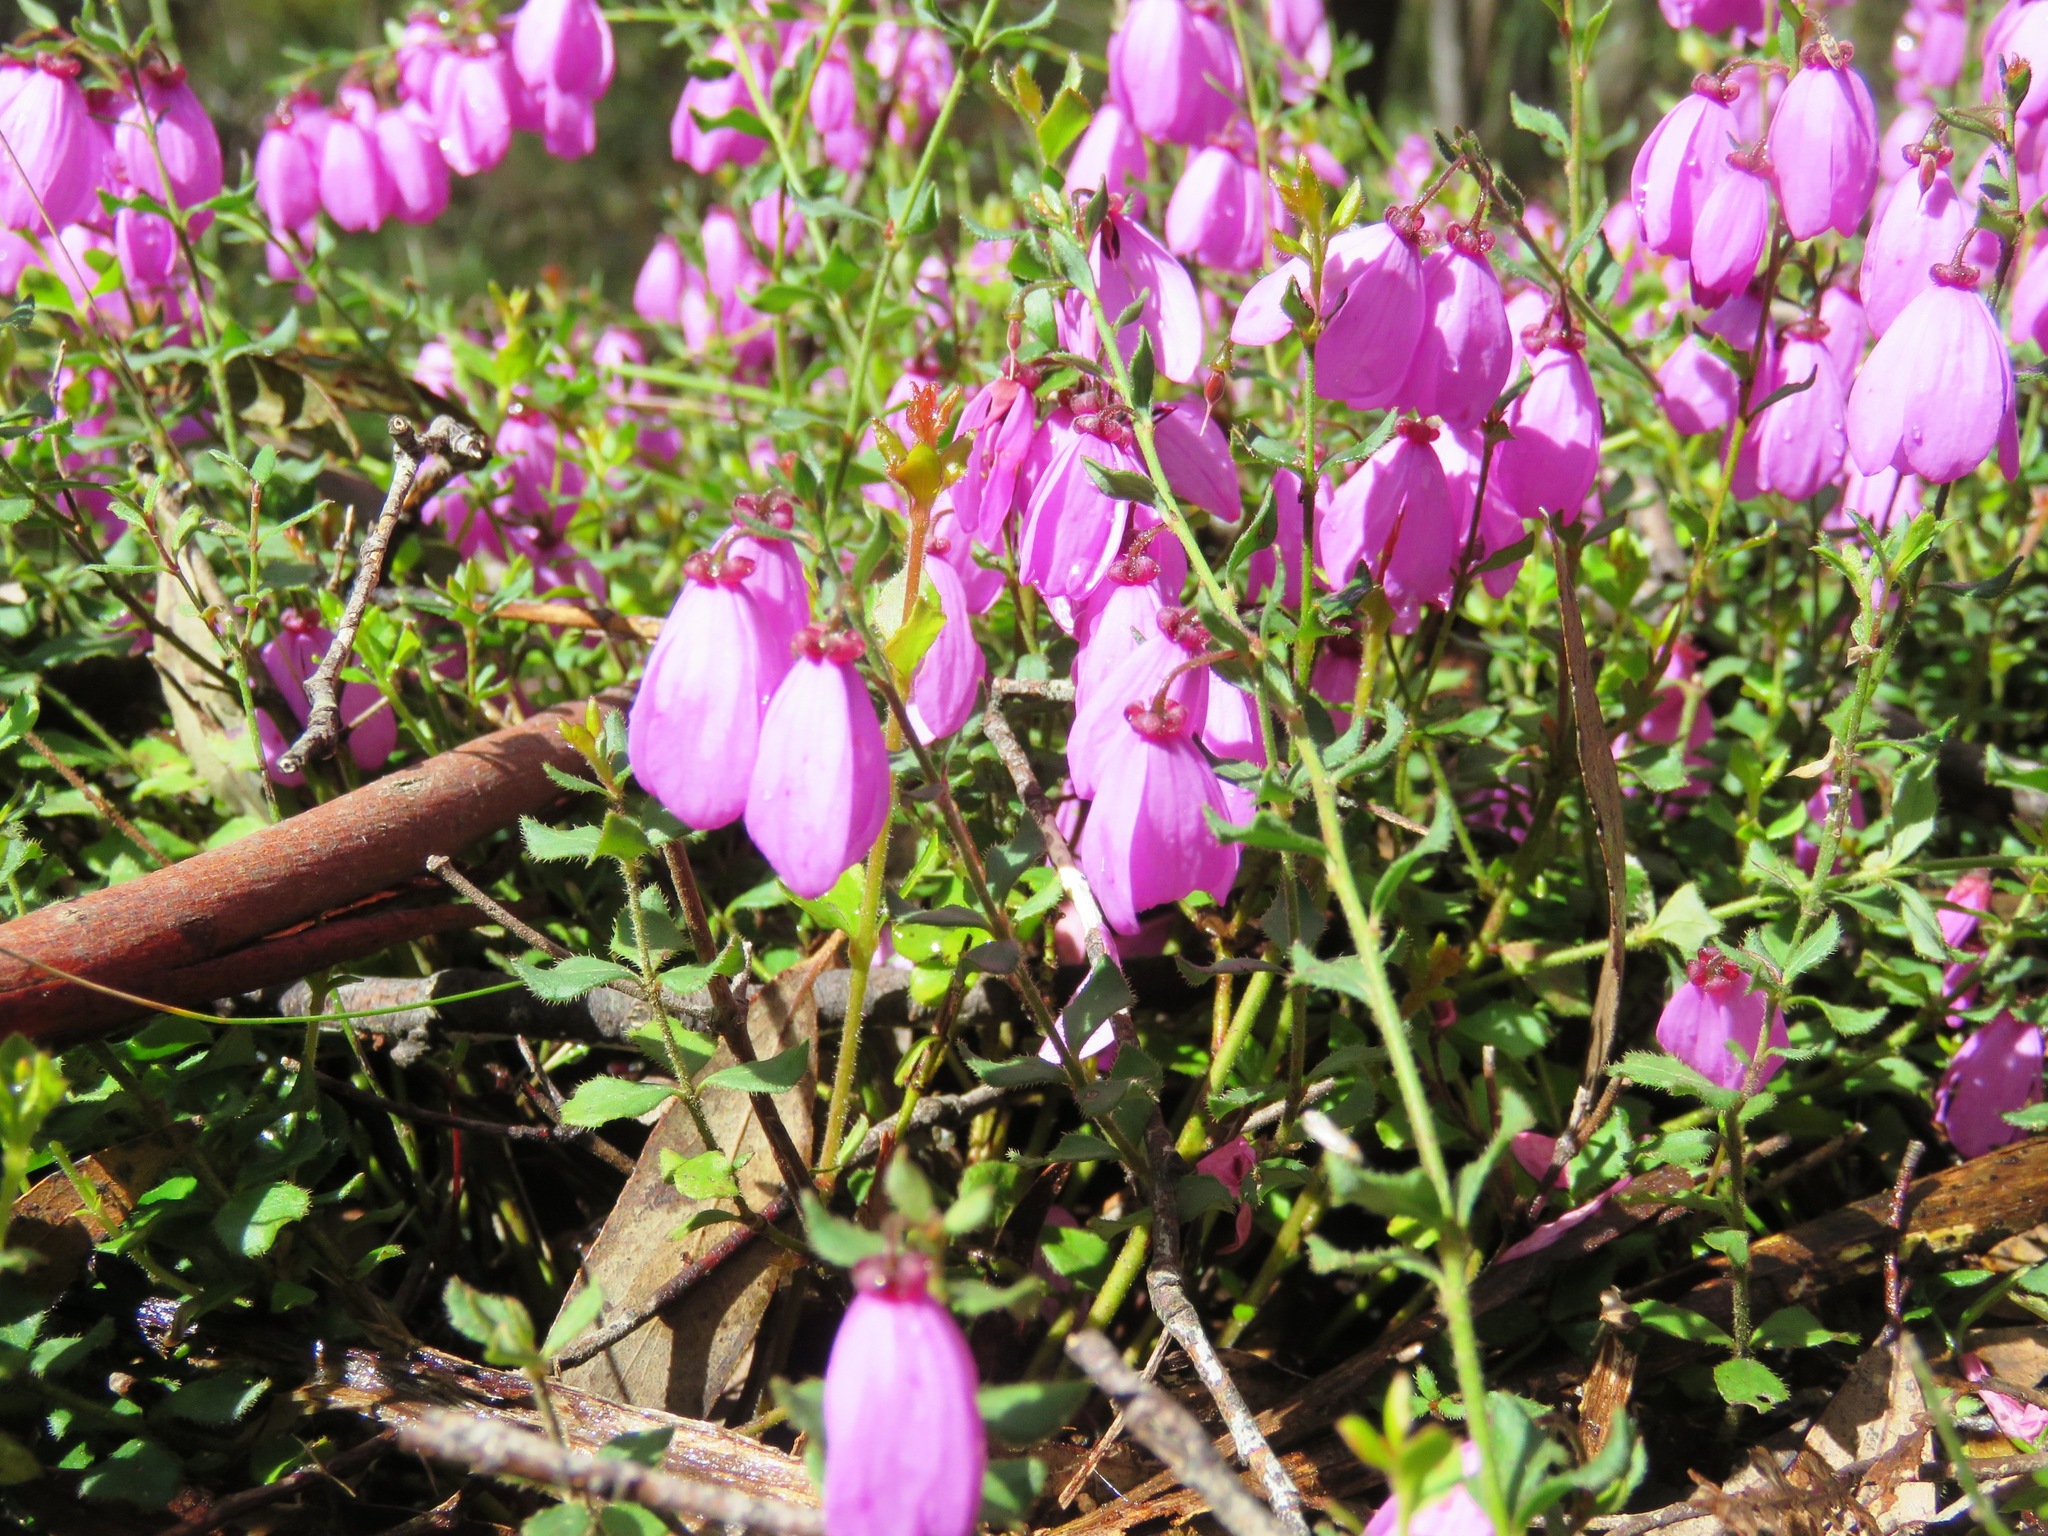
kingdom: Plantae
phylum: Tracheophyta
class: Magnoliopsida
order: Oxalidales
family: Elaeocarpaceae
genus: Tetratheca
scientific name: Tetratheca ciliata
